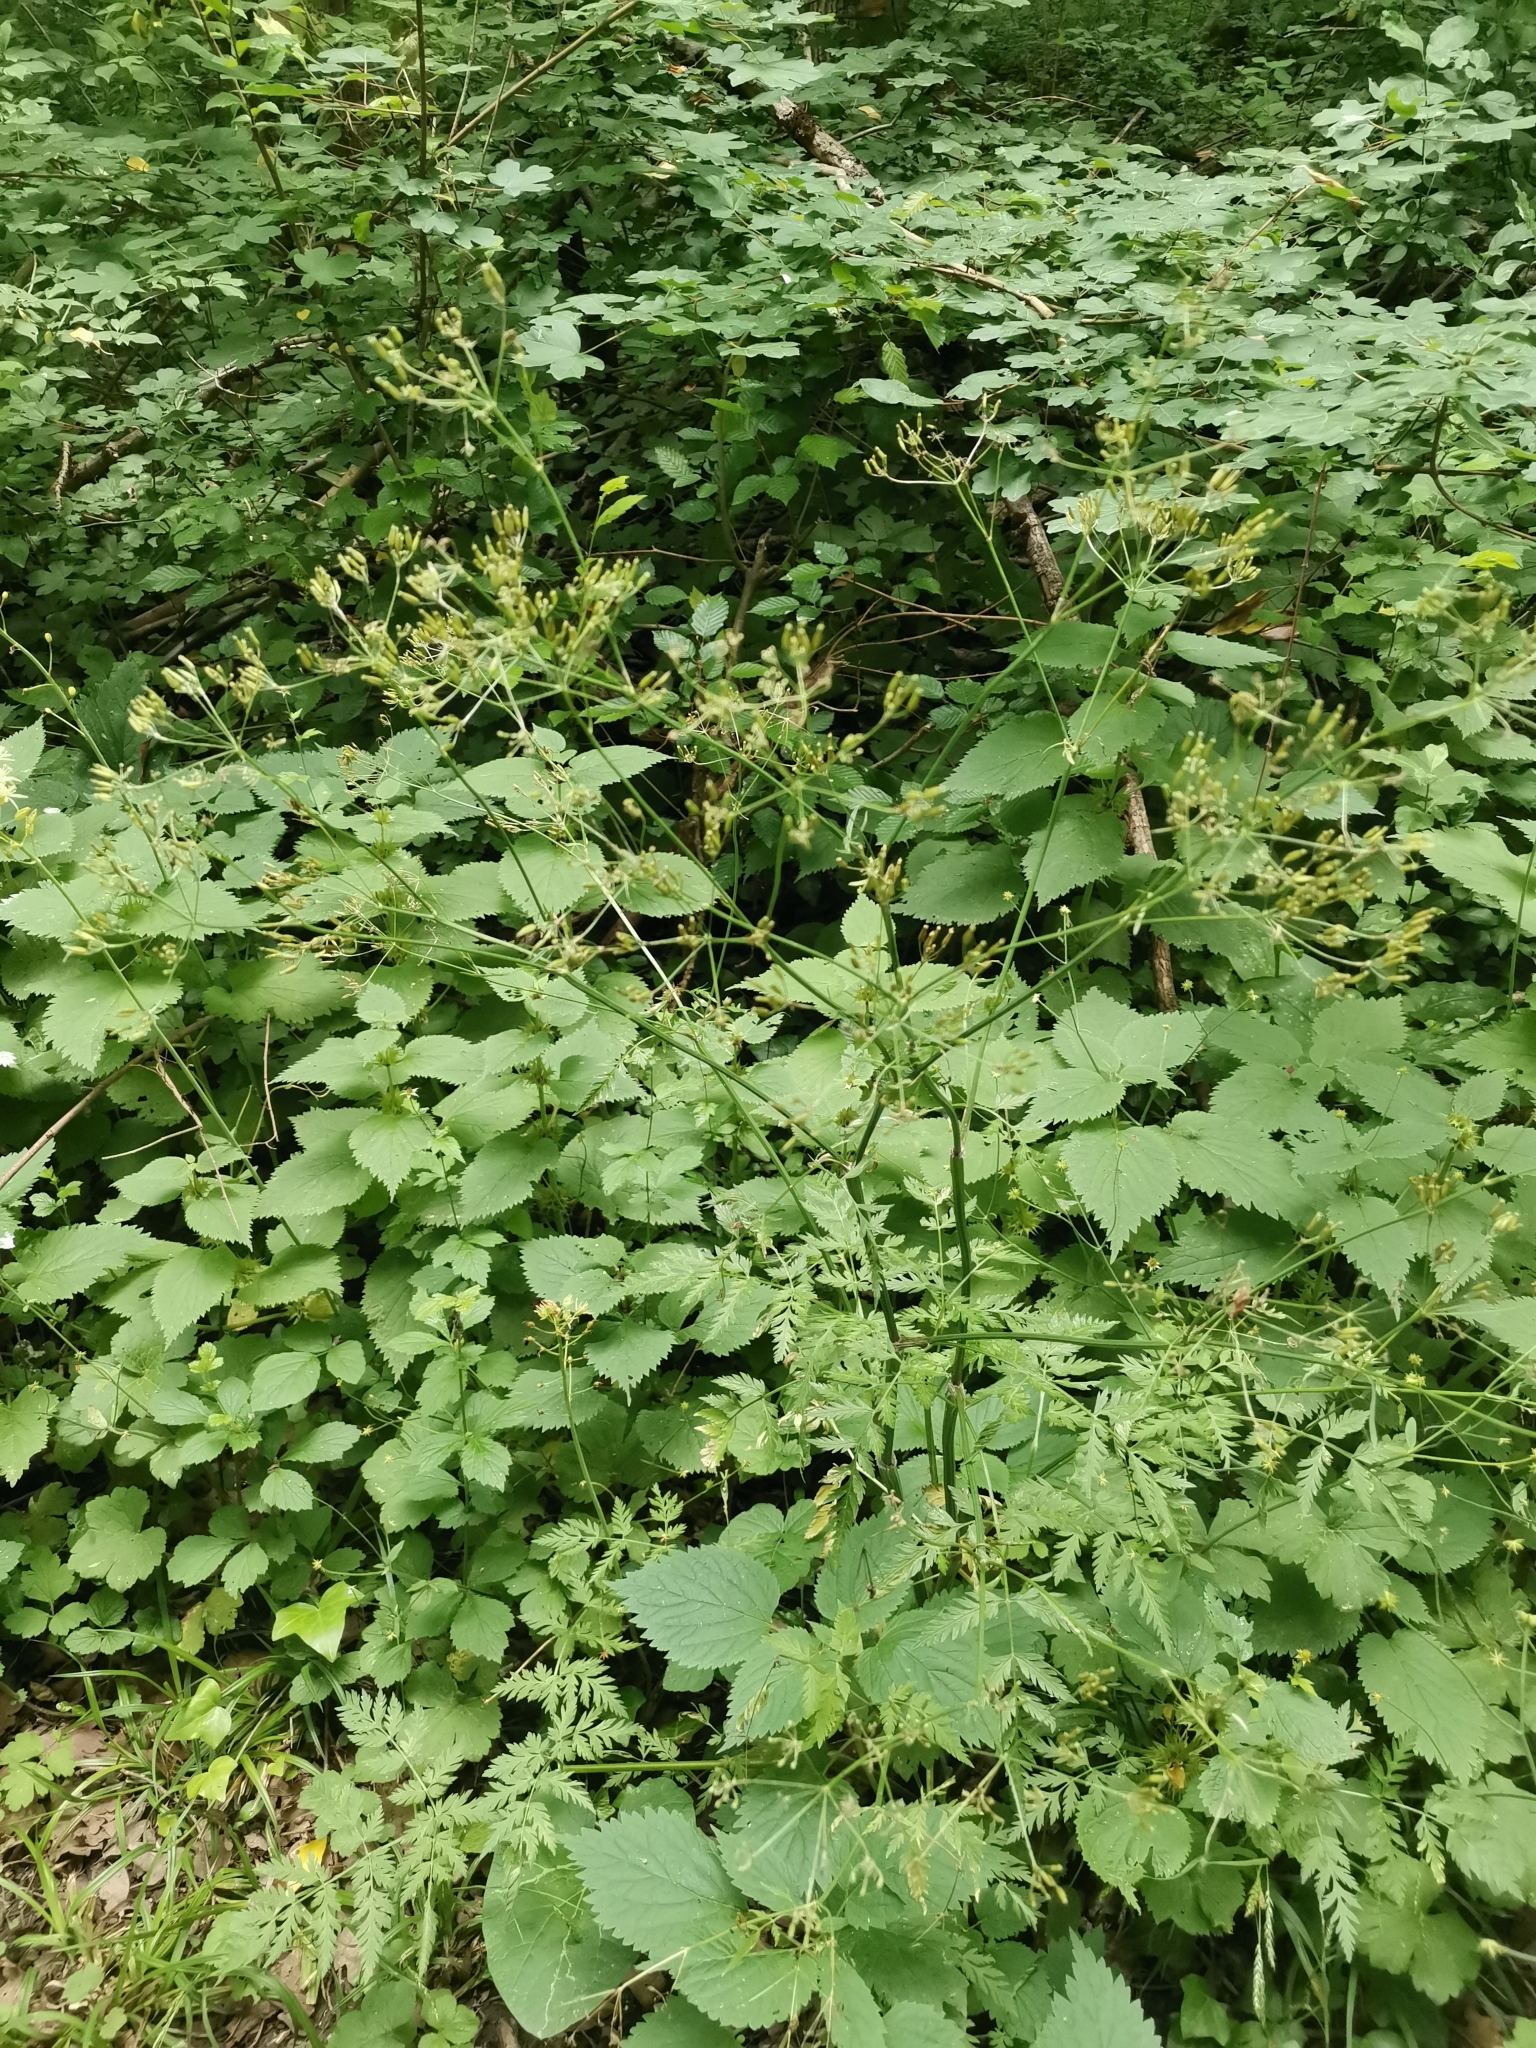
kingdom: Plantae
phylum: Tracheophyta
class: Magnoliopsida
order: Apiales
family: Apiaceae
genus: Anthriscus
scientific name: Anthriscus sylvestris
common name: Cow parsley
